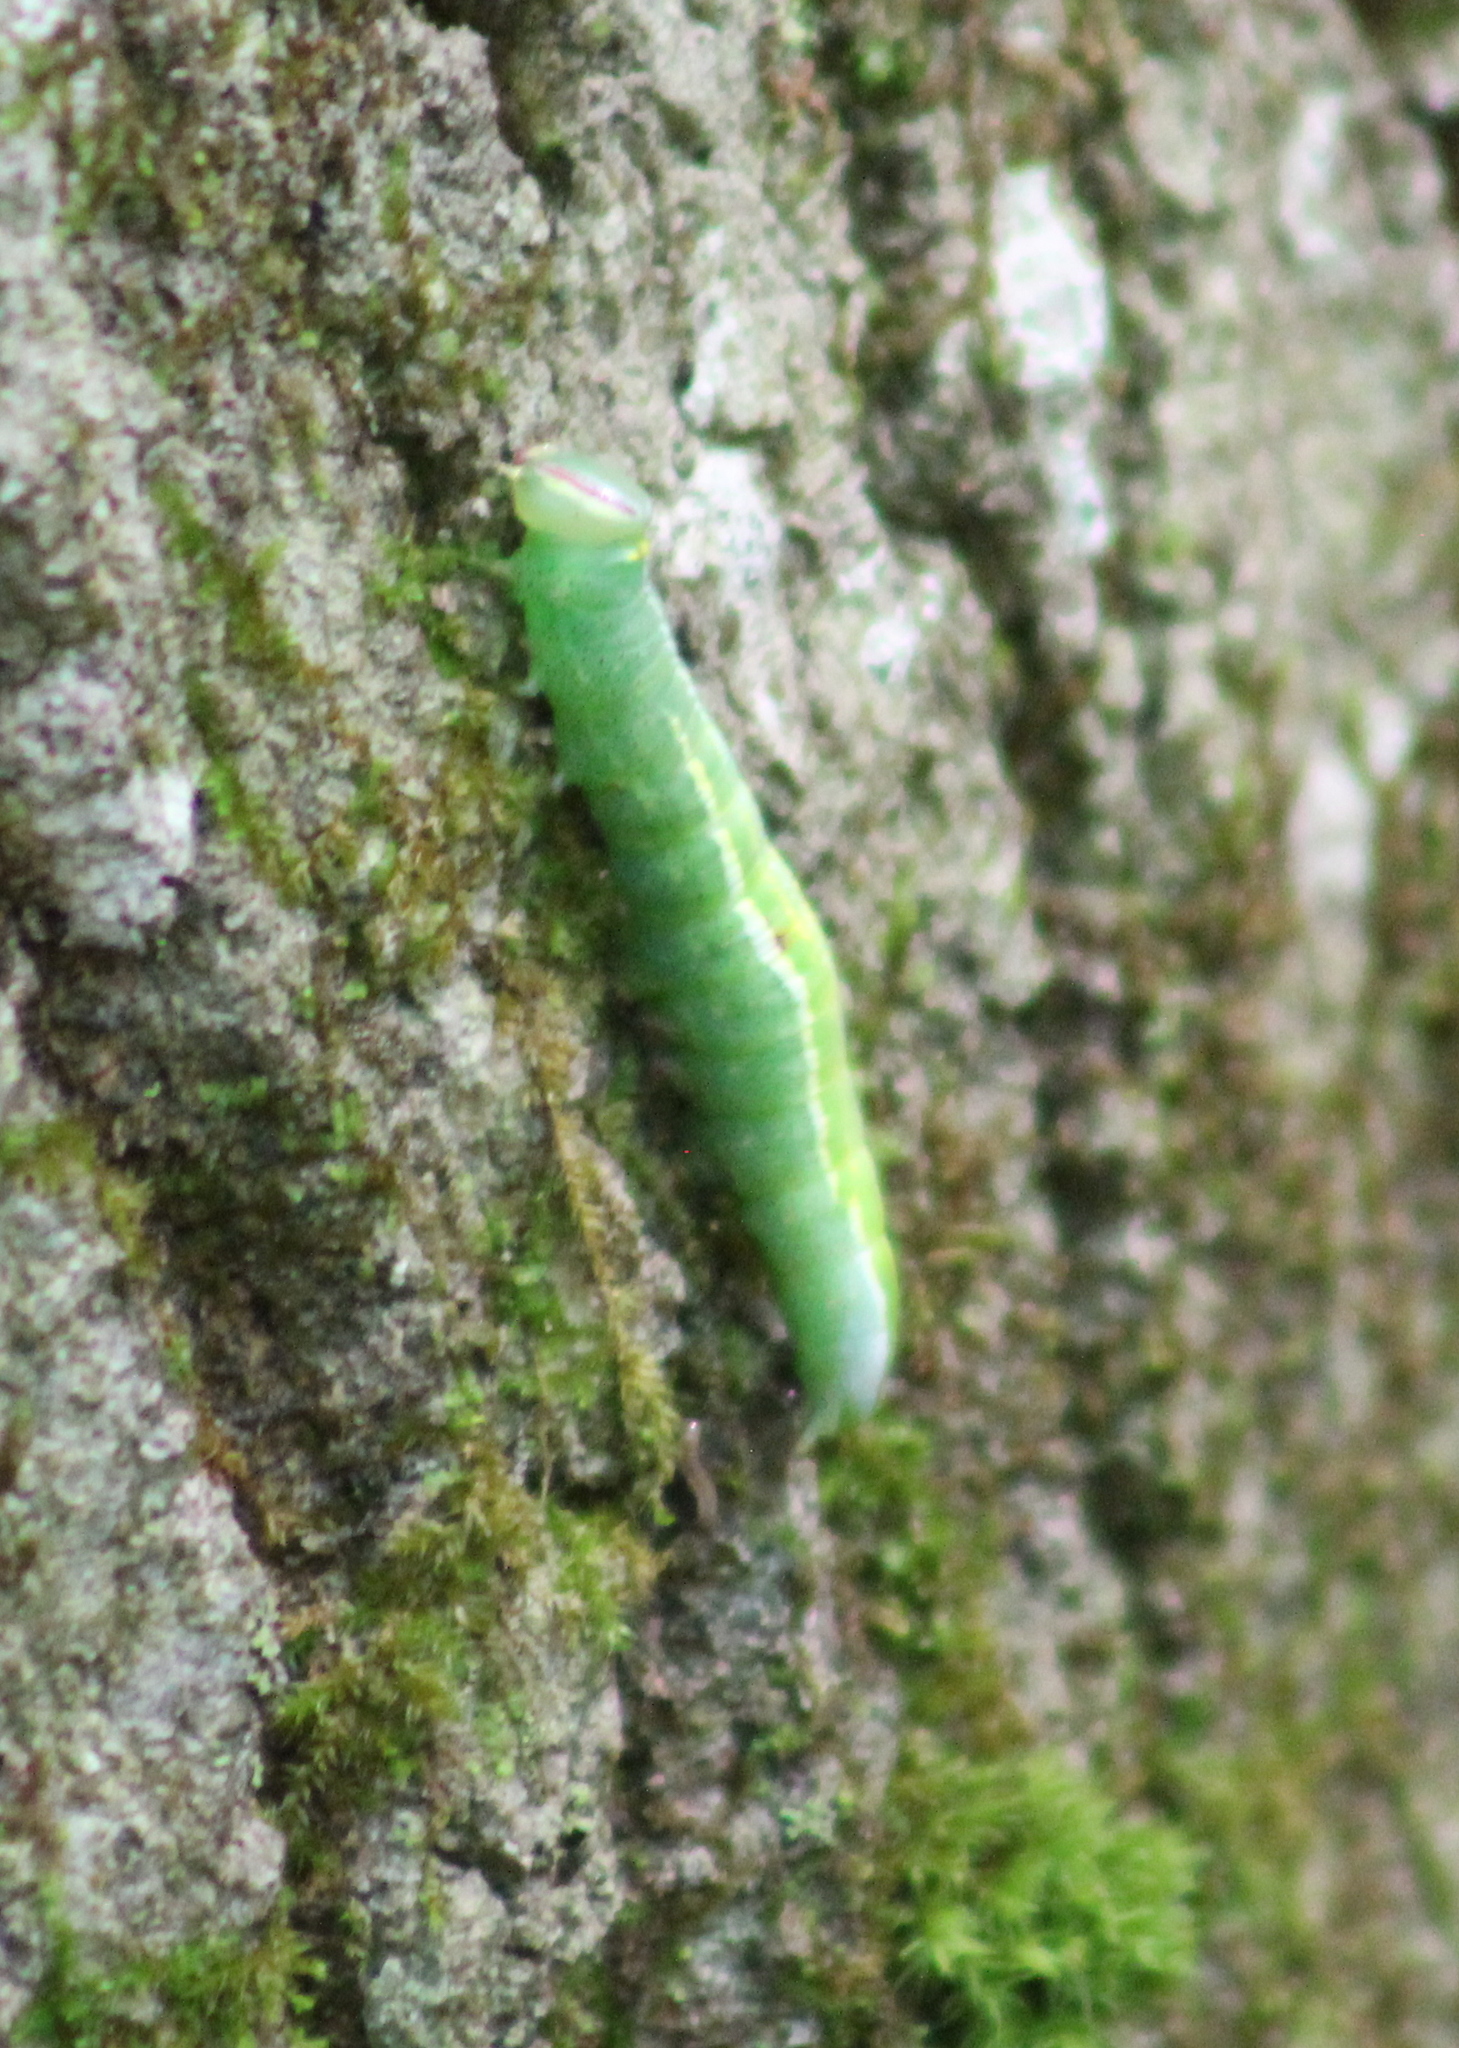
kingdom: Animalia
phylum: Arthropoda
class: Insecta
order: Lepidoptera
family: Notodontidae
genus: Disphragis
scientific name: Disphragis Cecrita guttivitta
